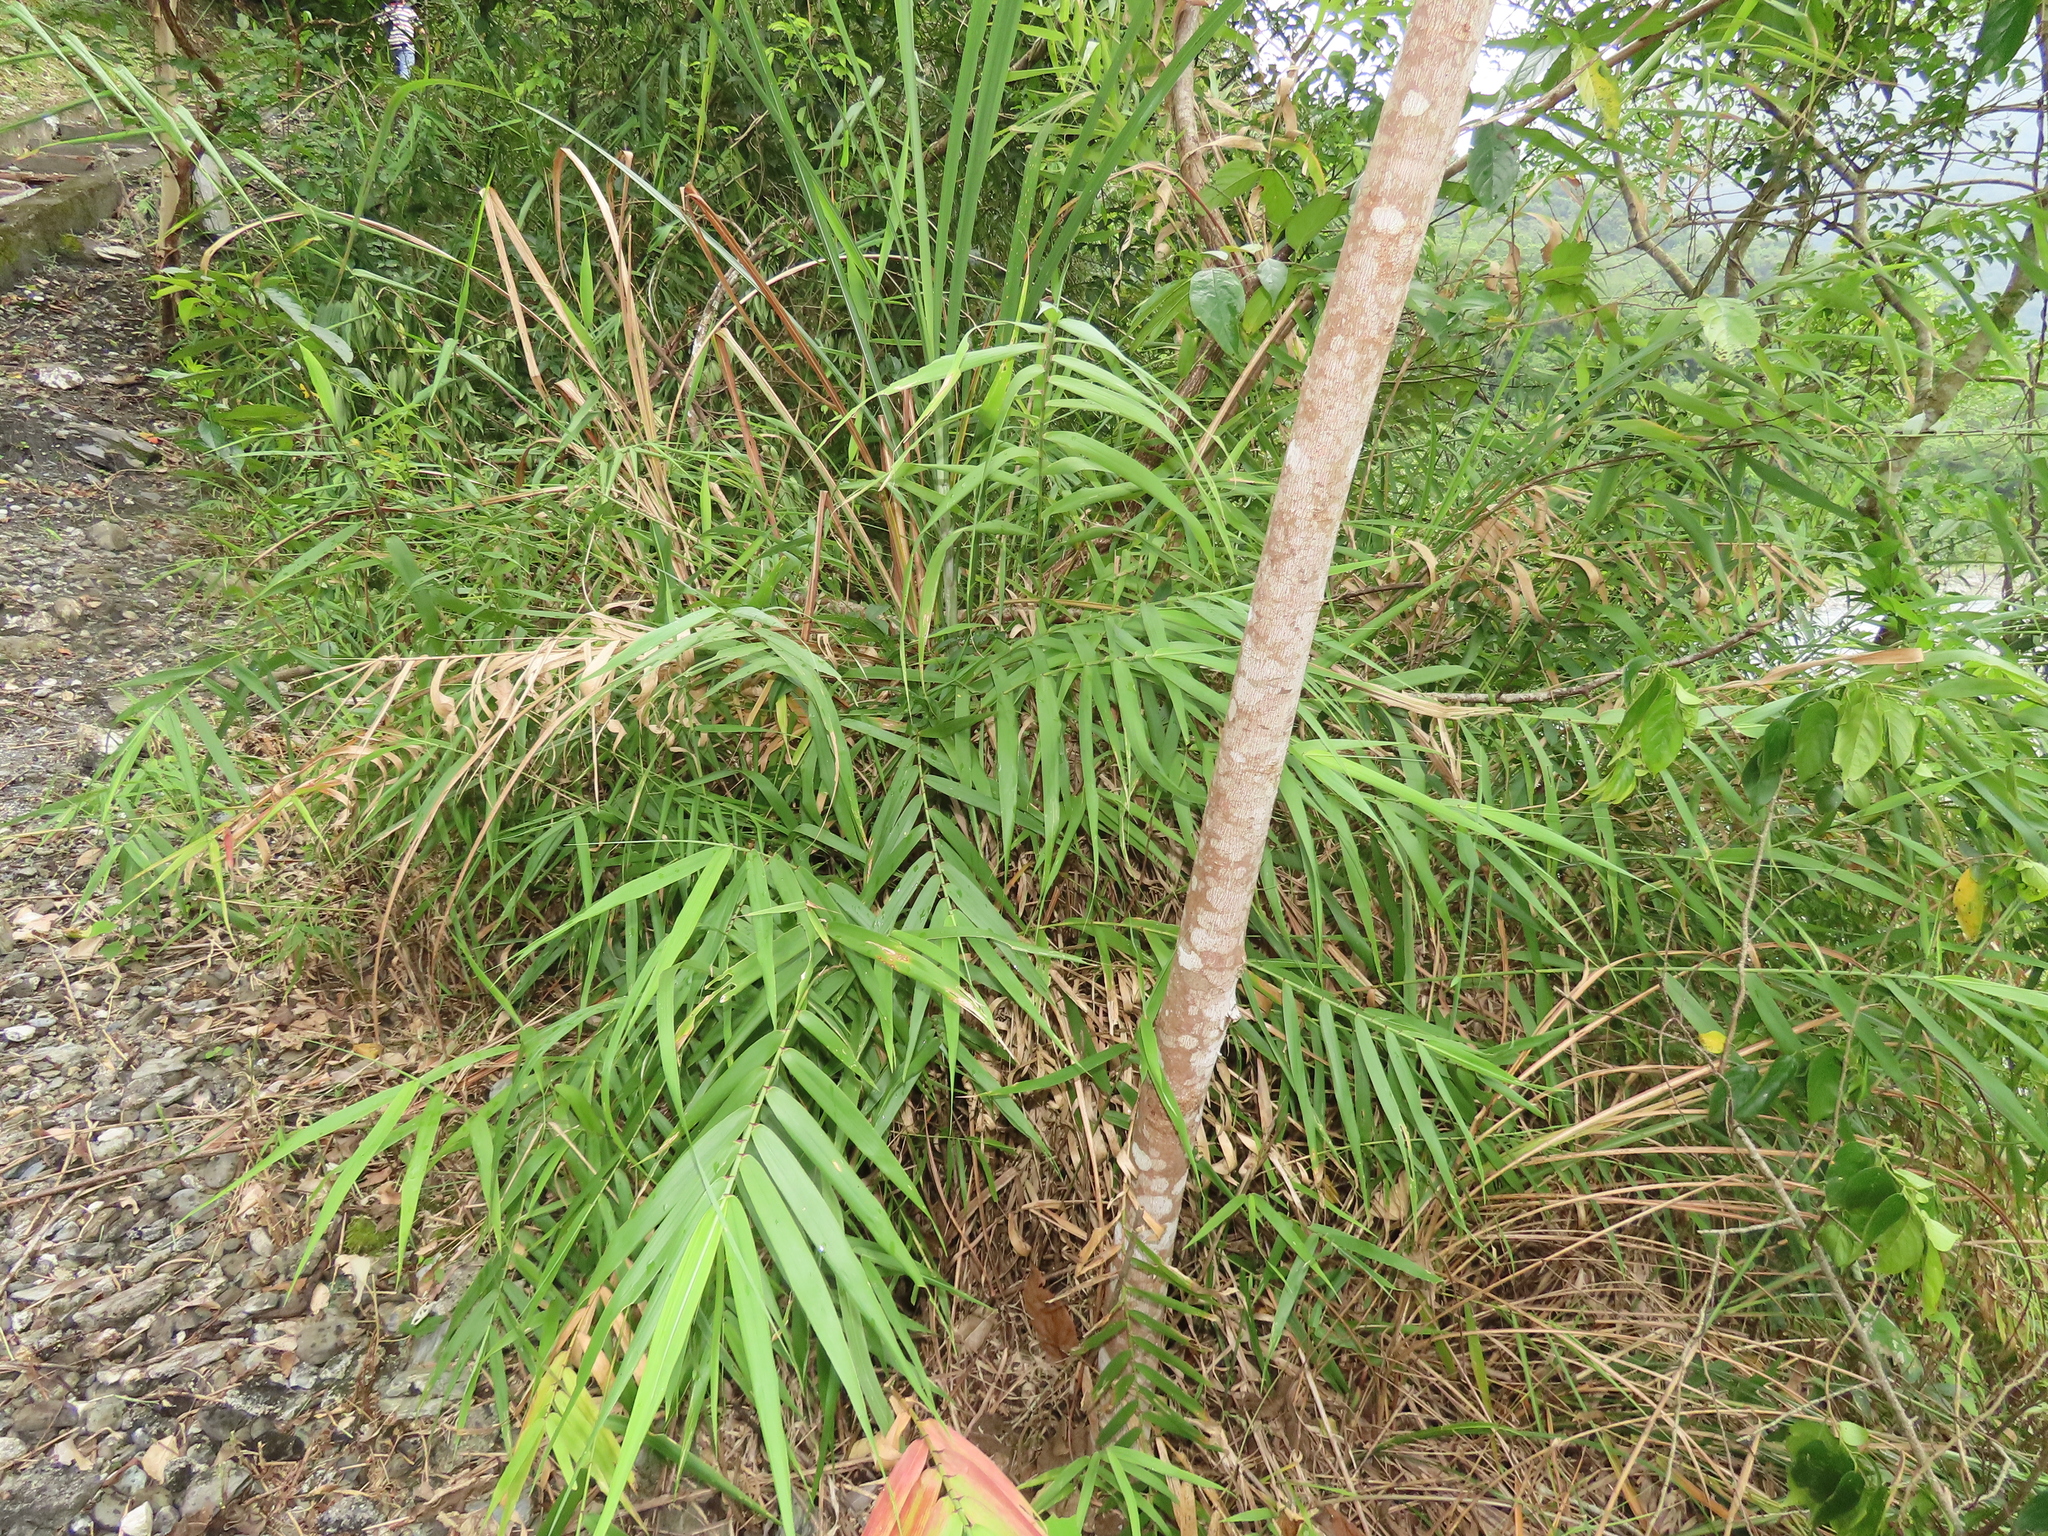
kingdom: Plantae
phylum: Tracheophyta
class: Liliopsida
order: Poales
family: Poaceae
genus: Arundo
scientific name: Arundo formosana
